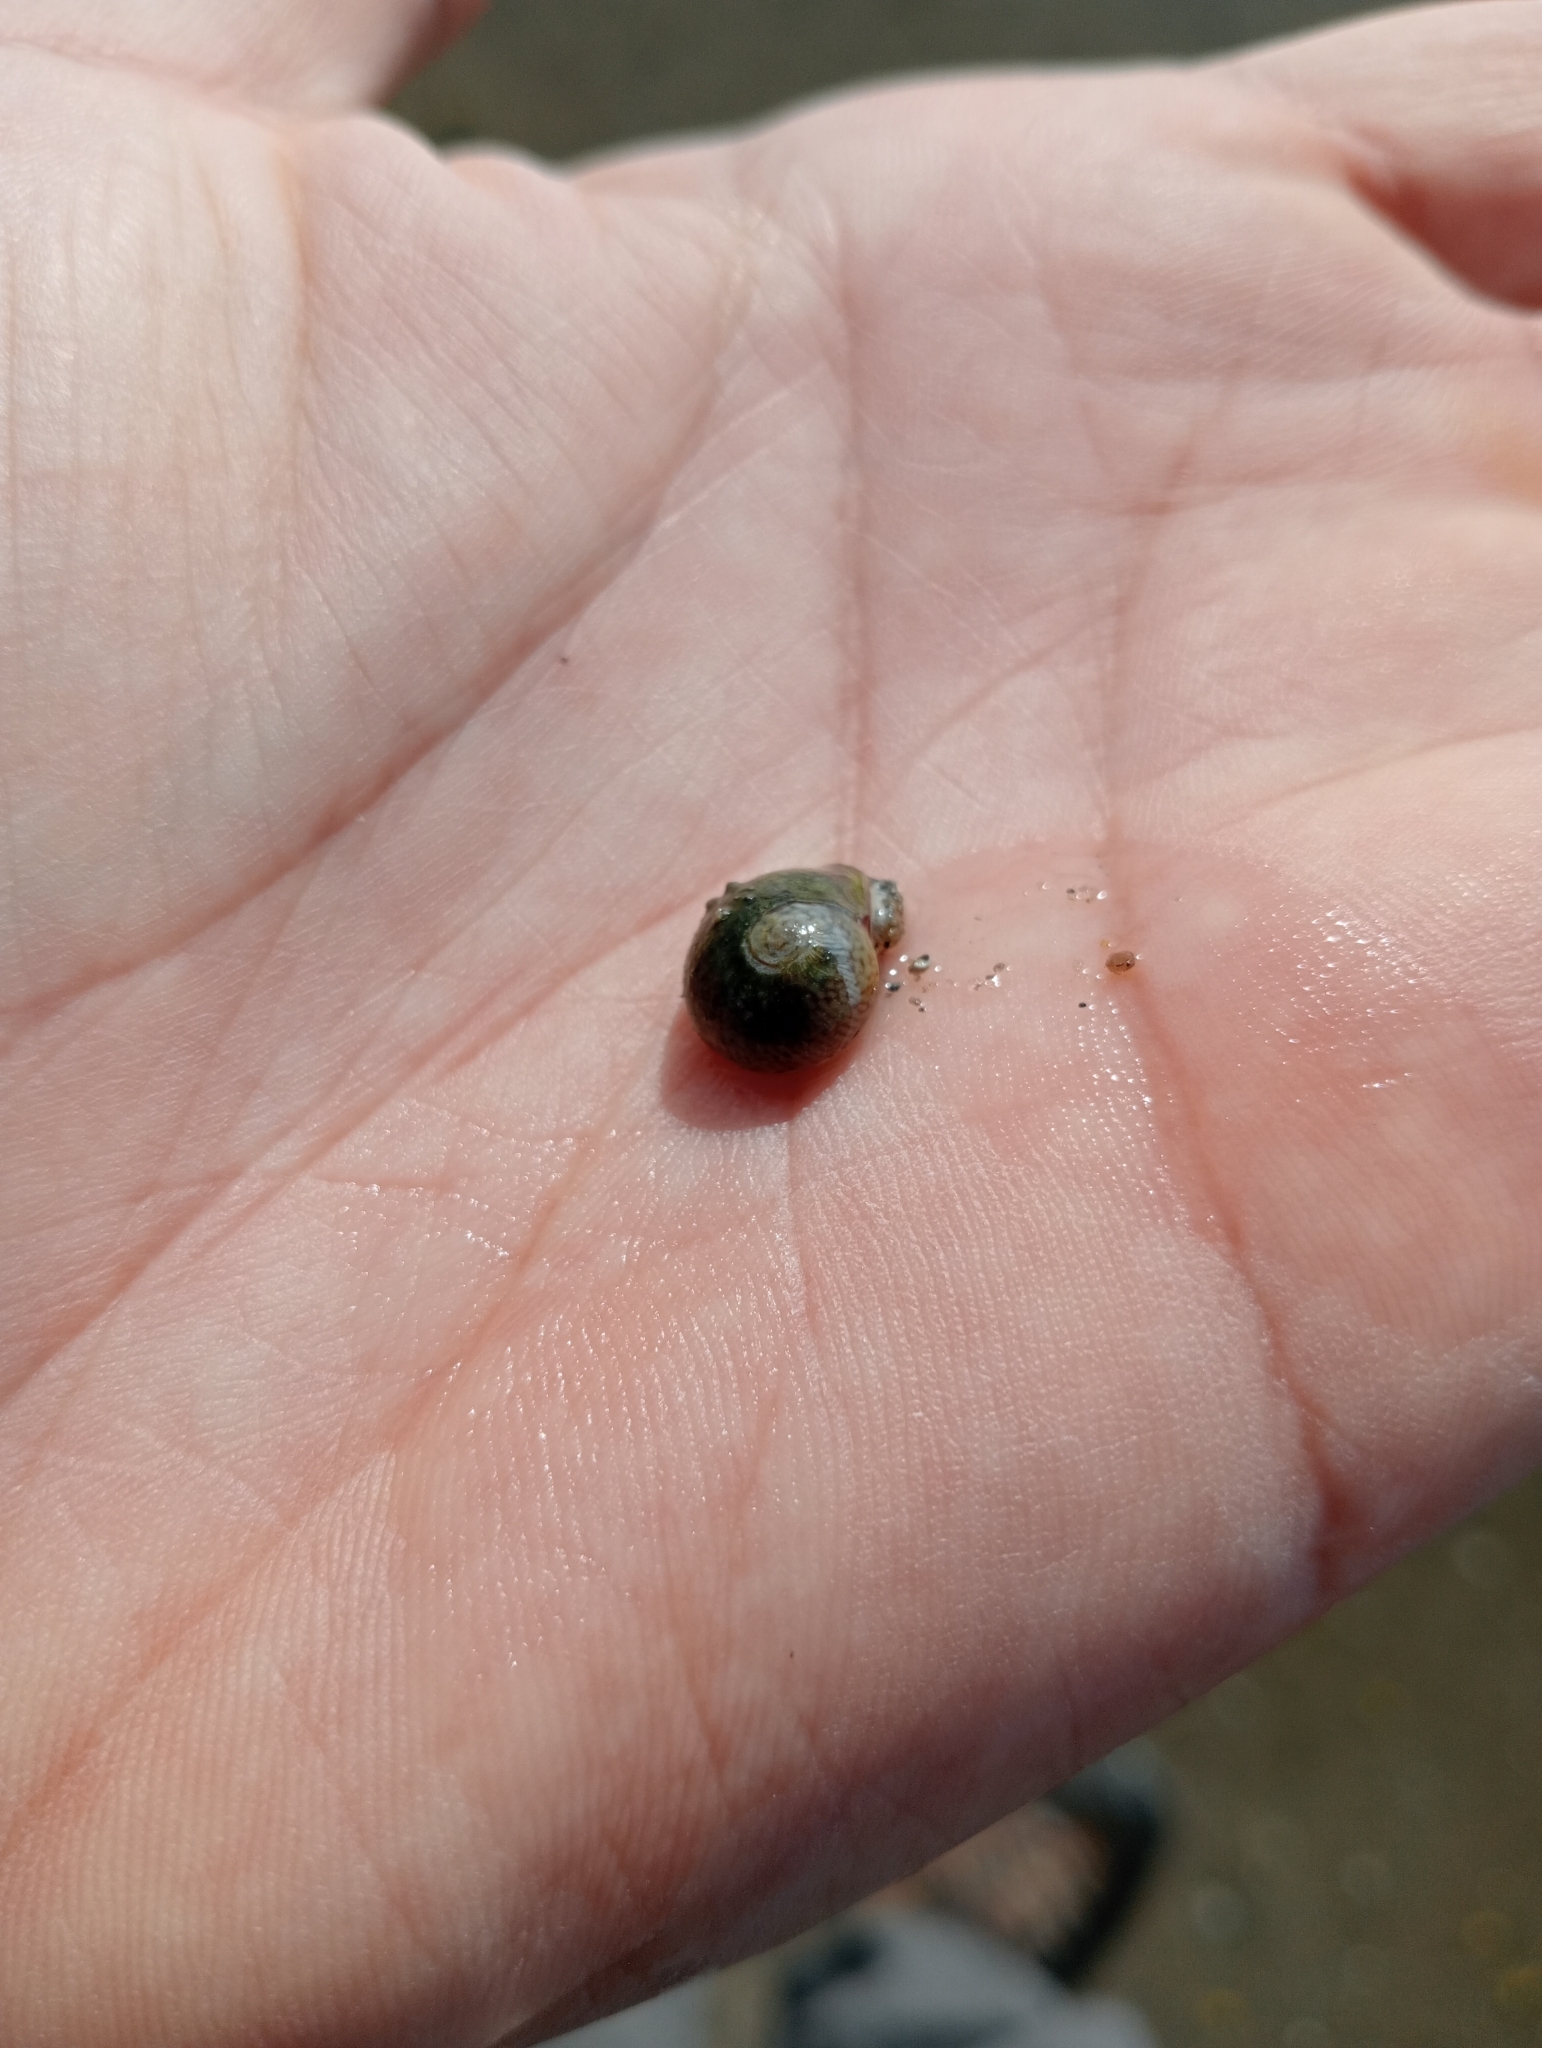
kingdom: Animalia
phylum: Mollusca
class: Gastropoda
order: Neogastropoda
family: Nassariidae
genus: Tritia
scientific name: Tritia neritea
